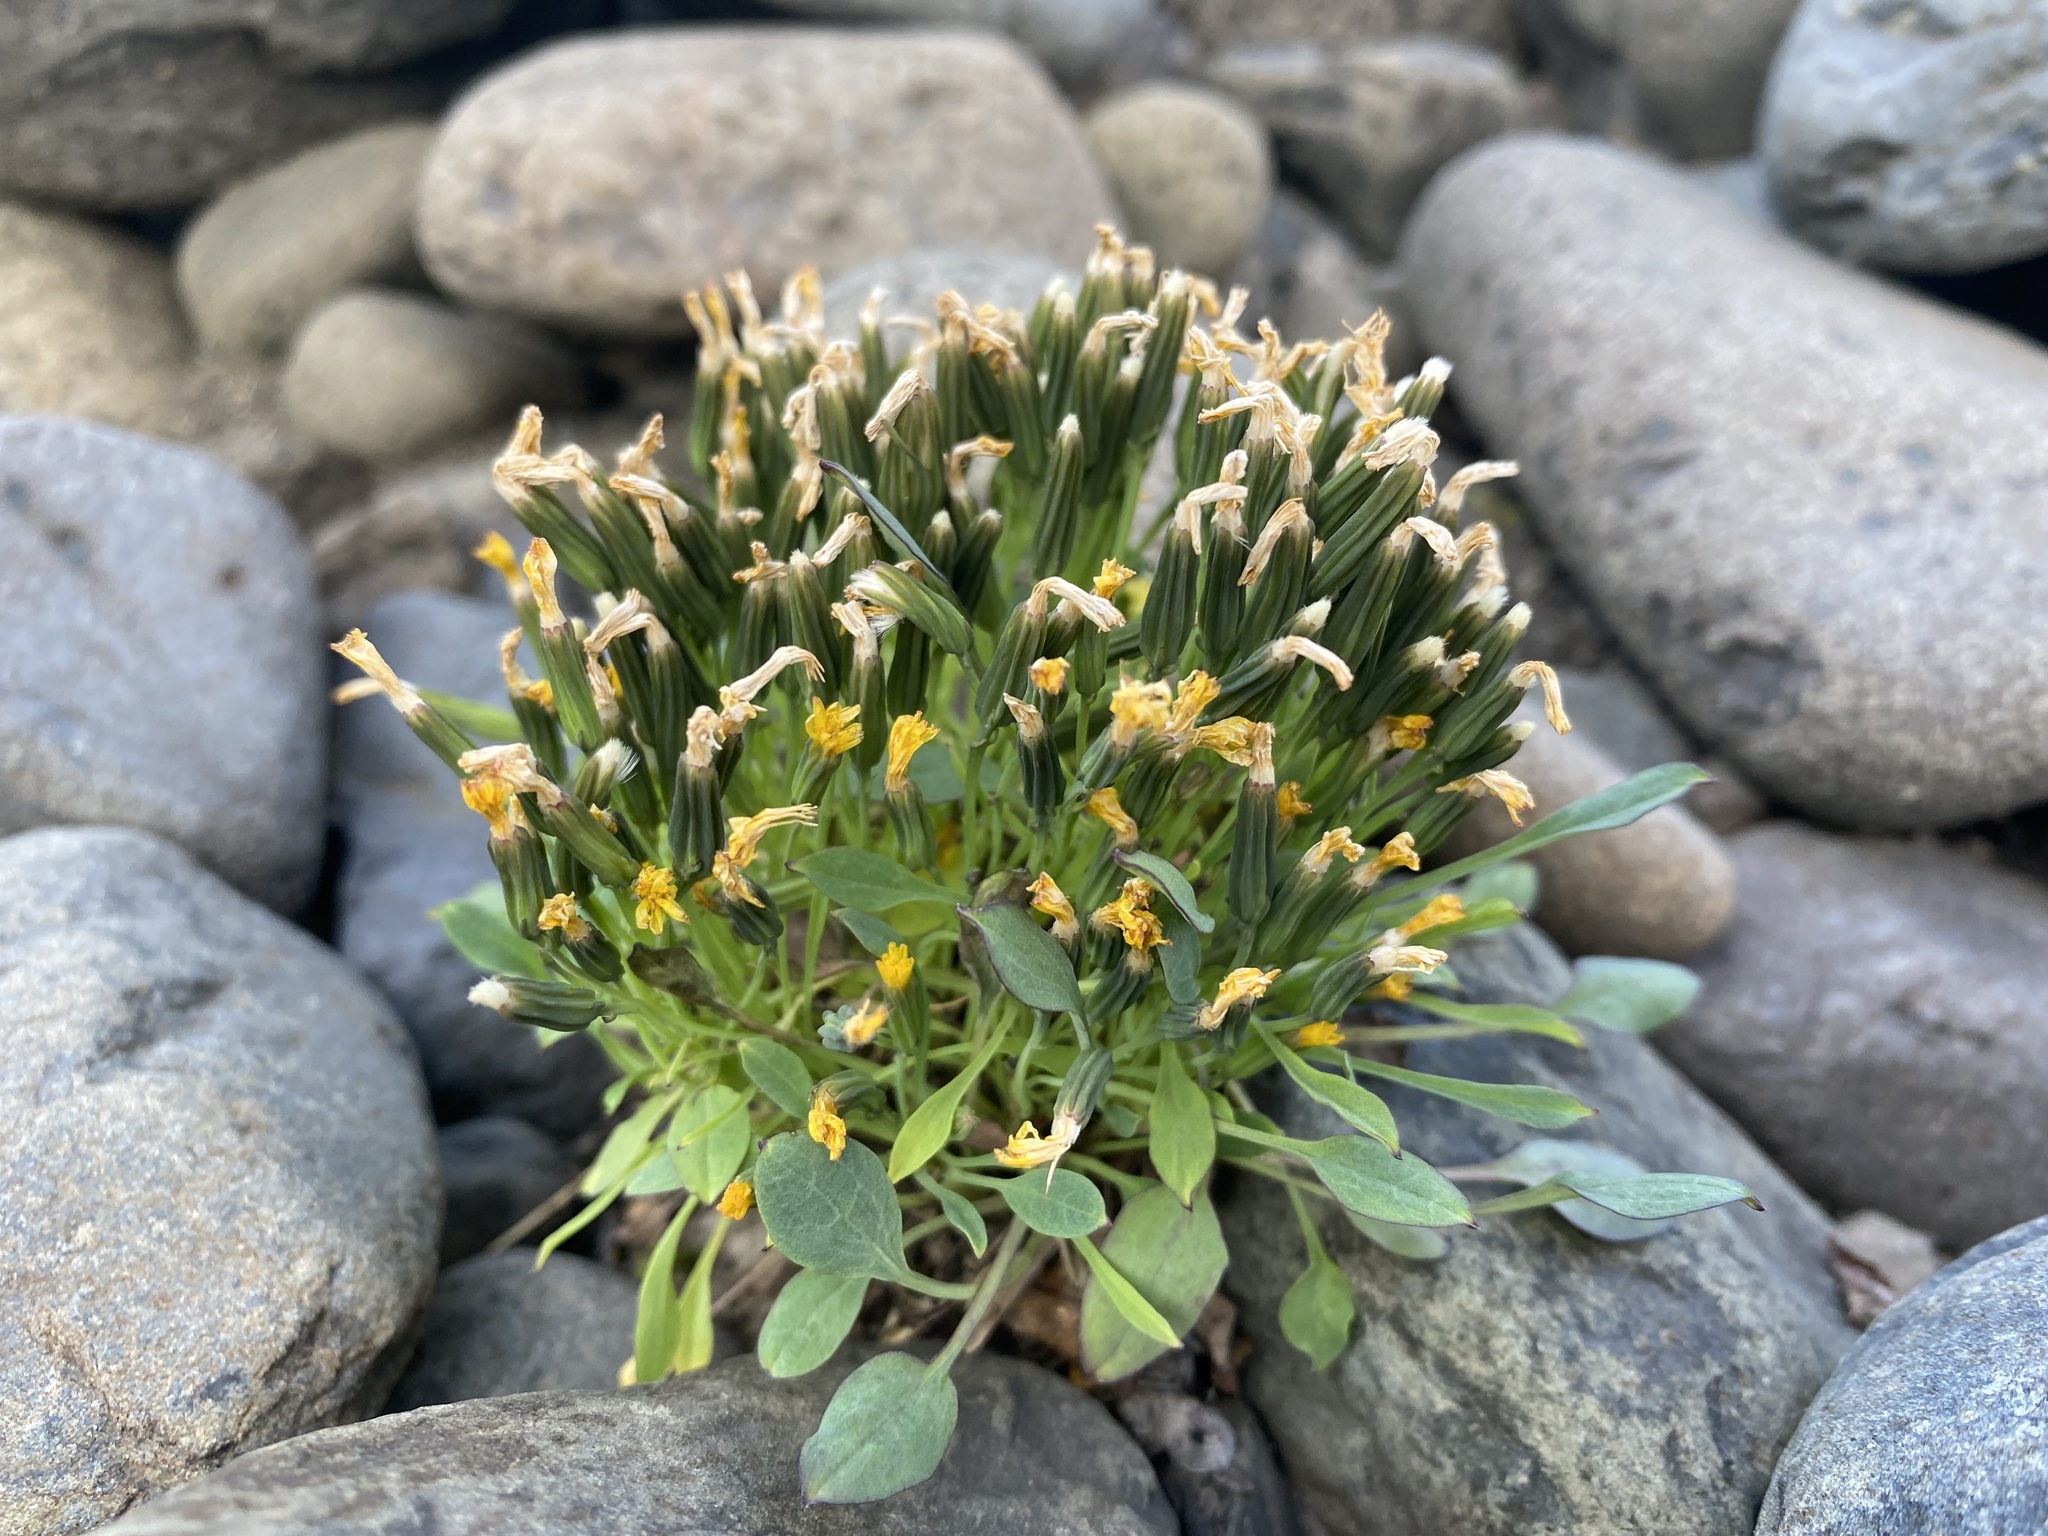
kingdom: Plantae
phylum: Tracheophyta
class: Magnoliopsida
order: Asterales
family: Asteraceae
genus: Askellia
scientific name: Askellia pygmaea
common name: Dwarf alpine hawksbeard
